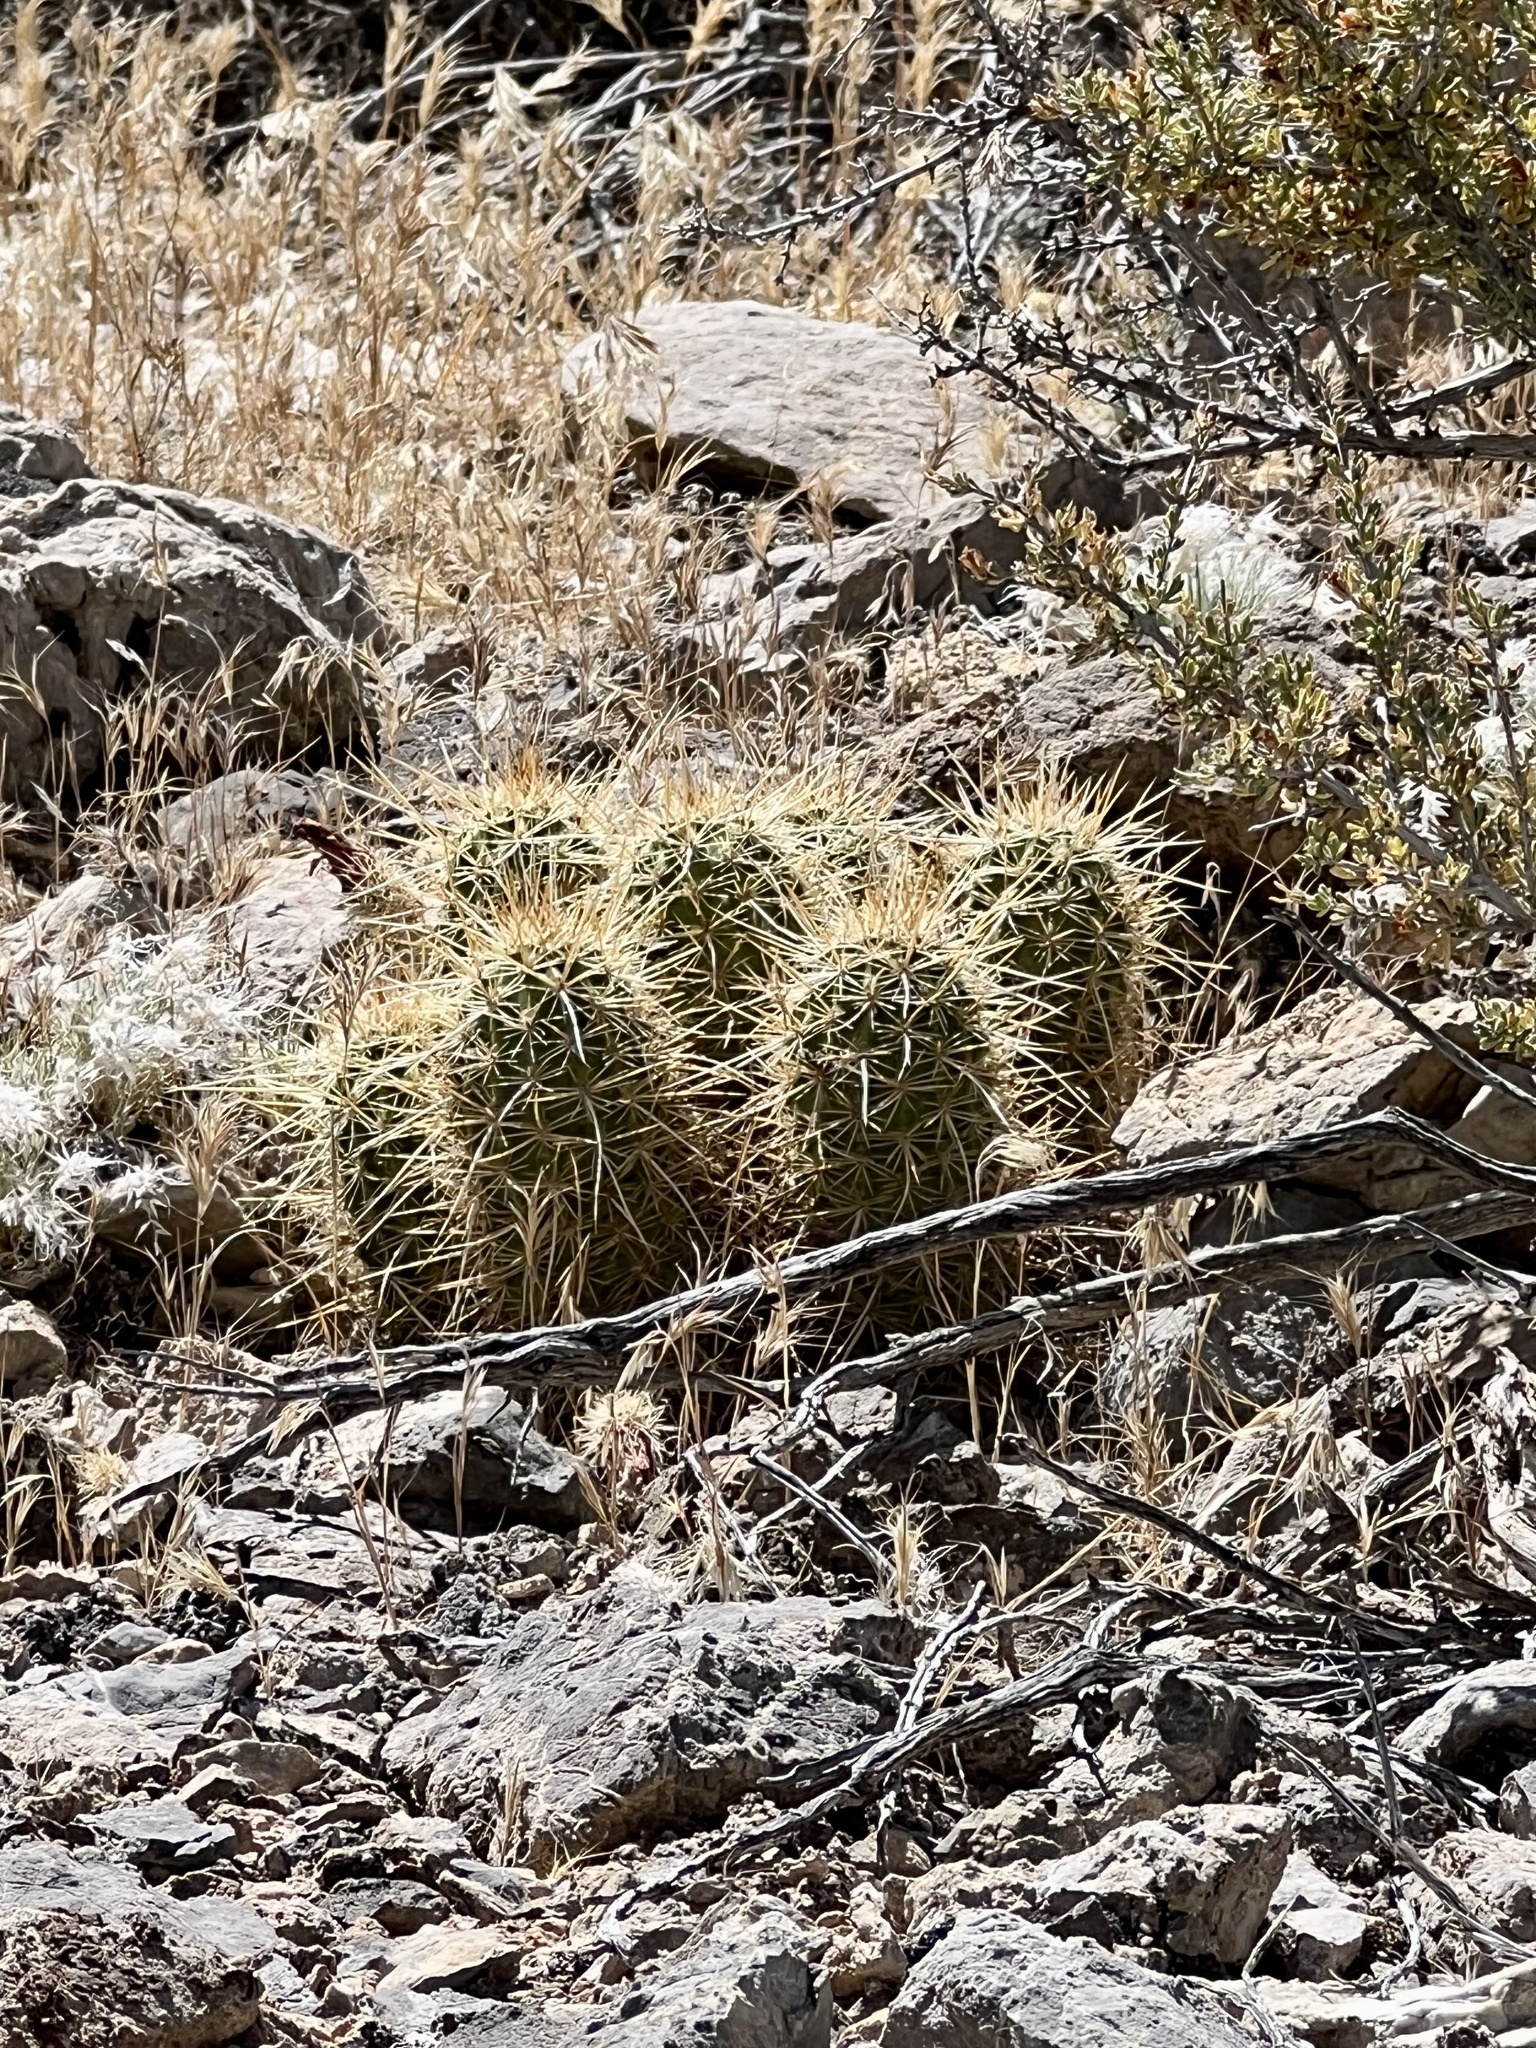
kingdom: Plantae
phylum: Tracheophyta
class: Magnoliopsida
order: Caryophyllales
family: Cactaceae
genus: Echinocereus
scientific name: Echinocereus engelmannii
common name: Engelmann's hedgehog cactus
